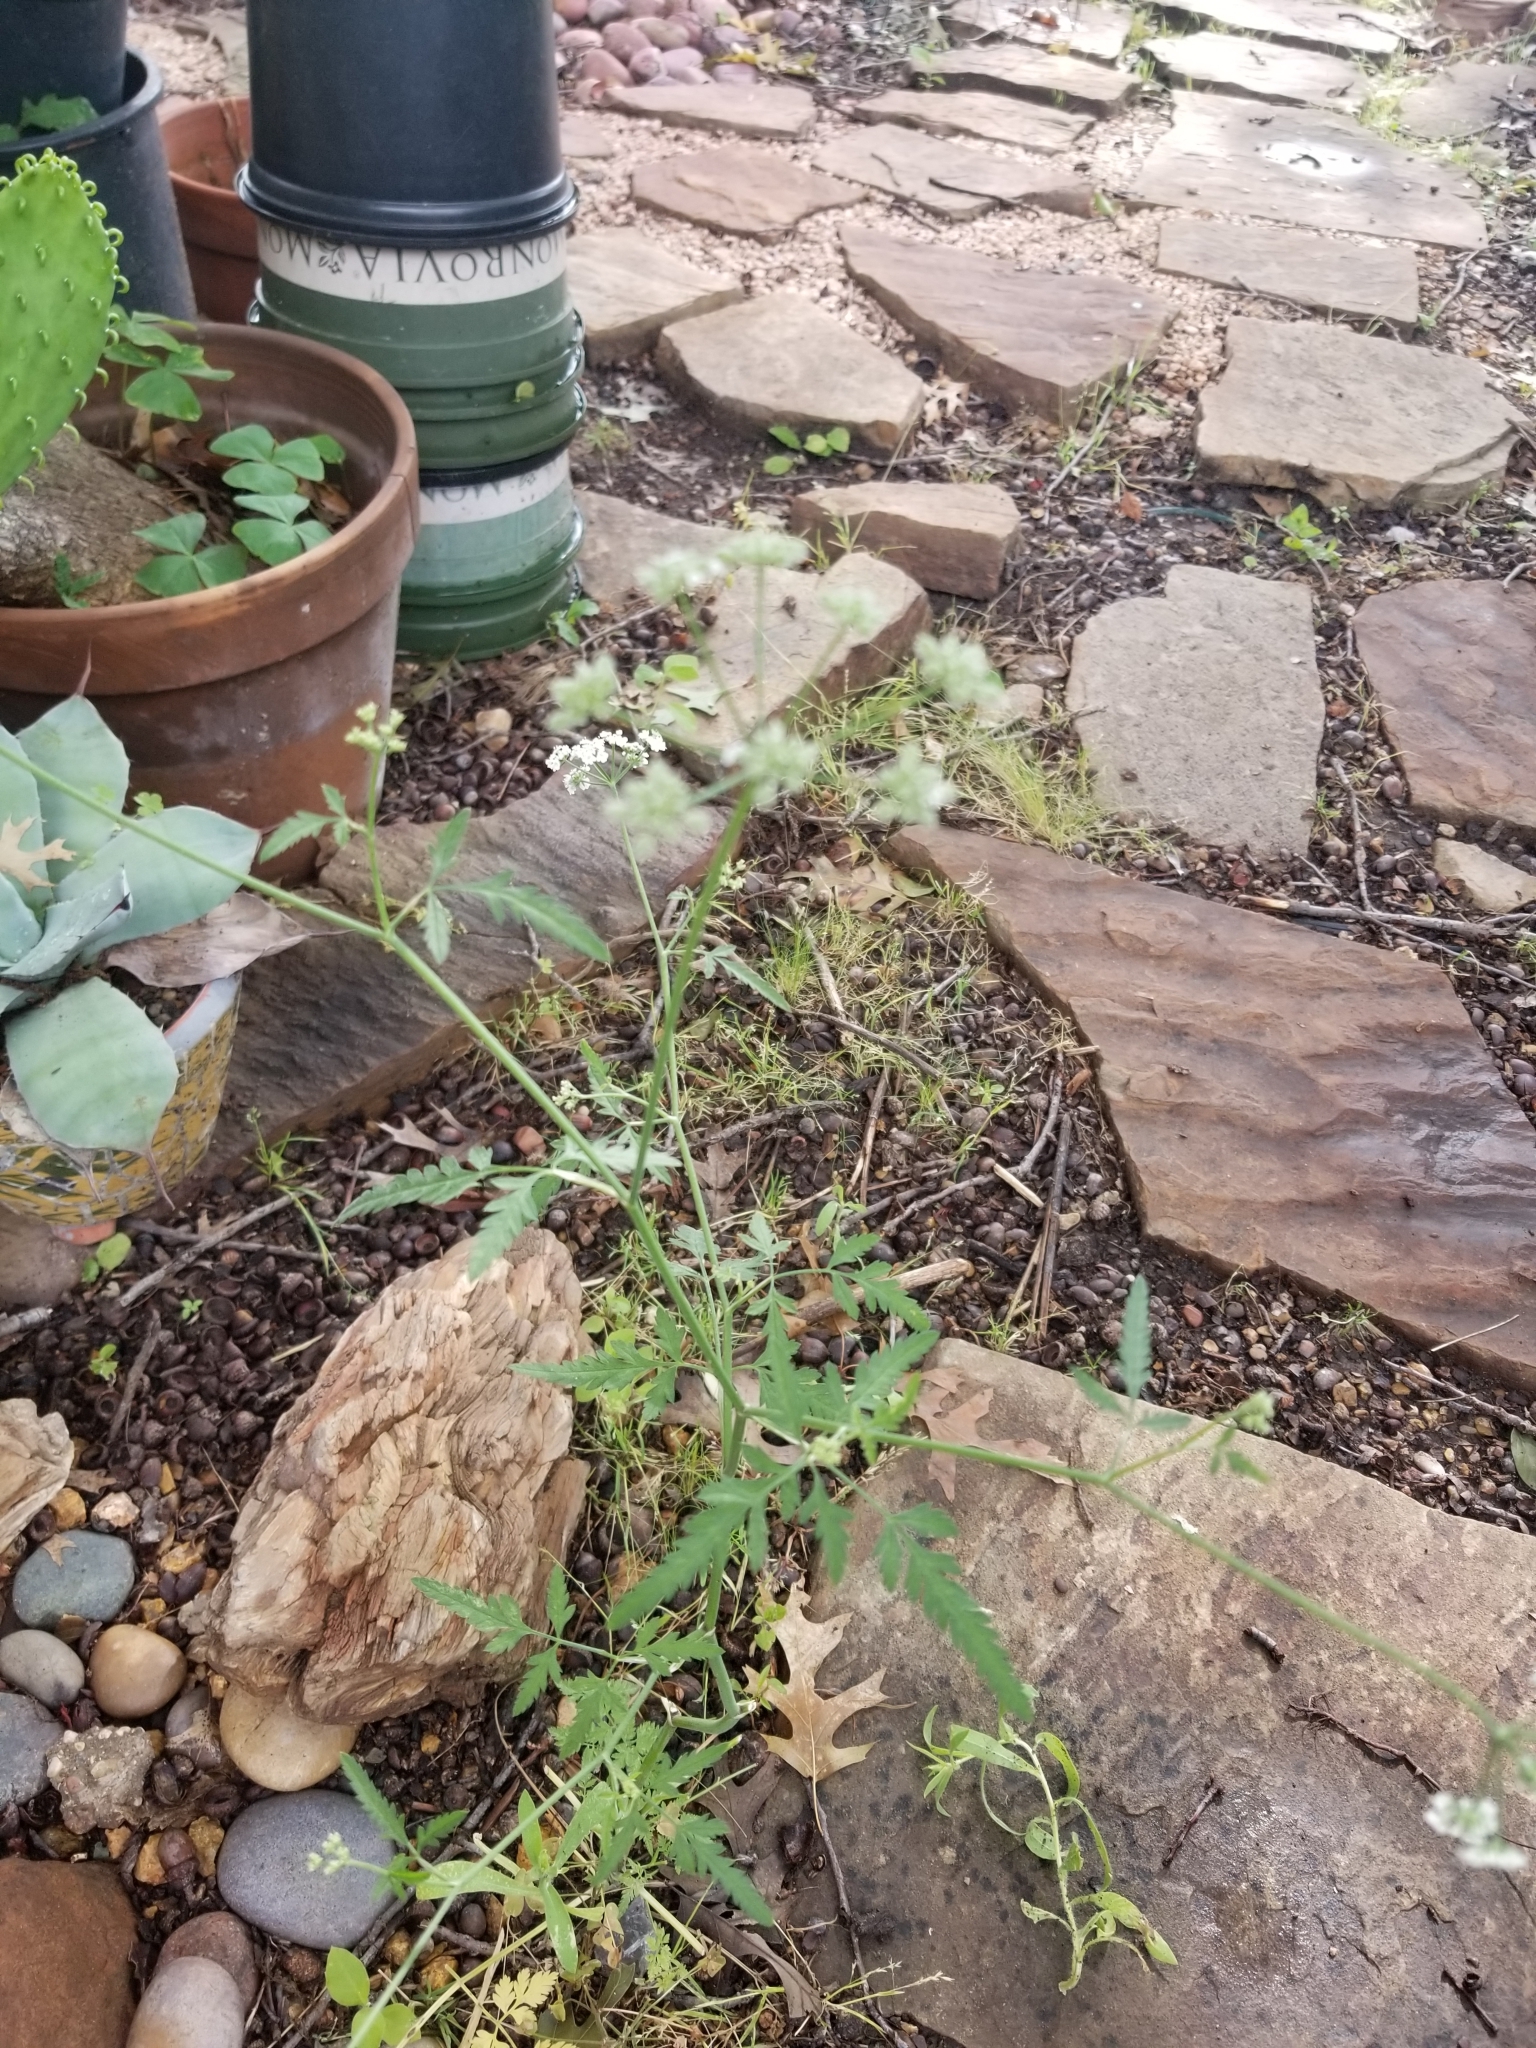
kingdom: Plantae
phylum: Tracheophyta
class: Magnoliopsida
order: Apiales
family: Apiaceae
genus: Torilis
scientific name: Torilis arvensis
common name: Spreading hedge-parsley
